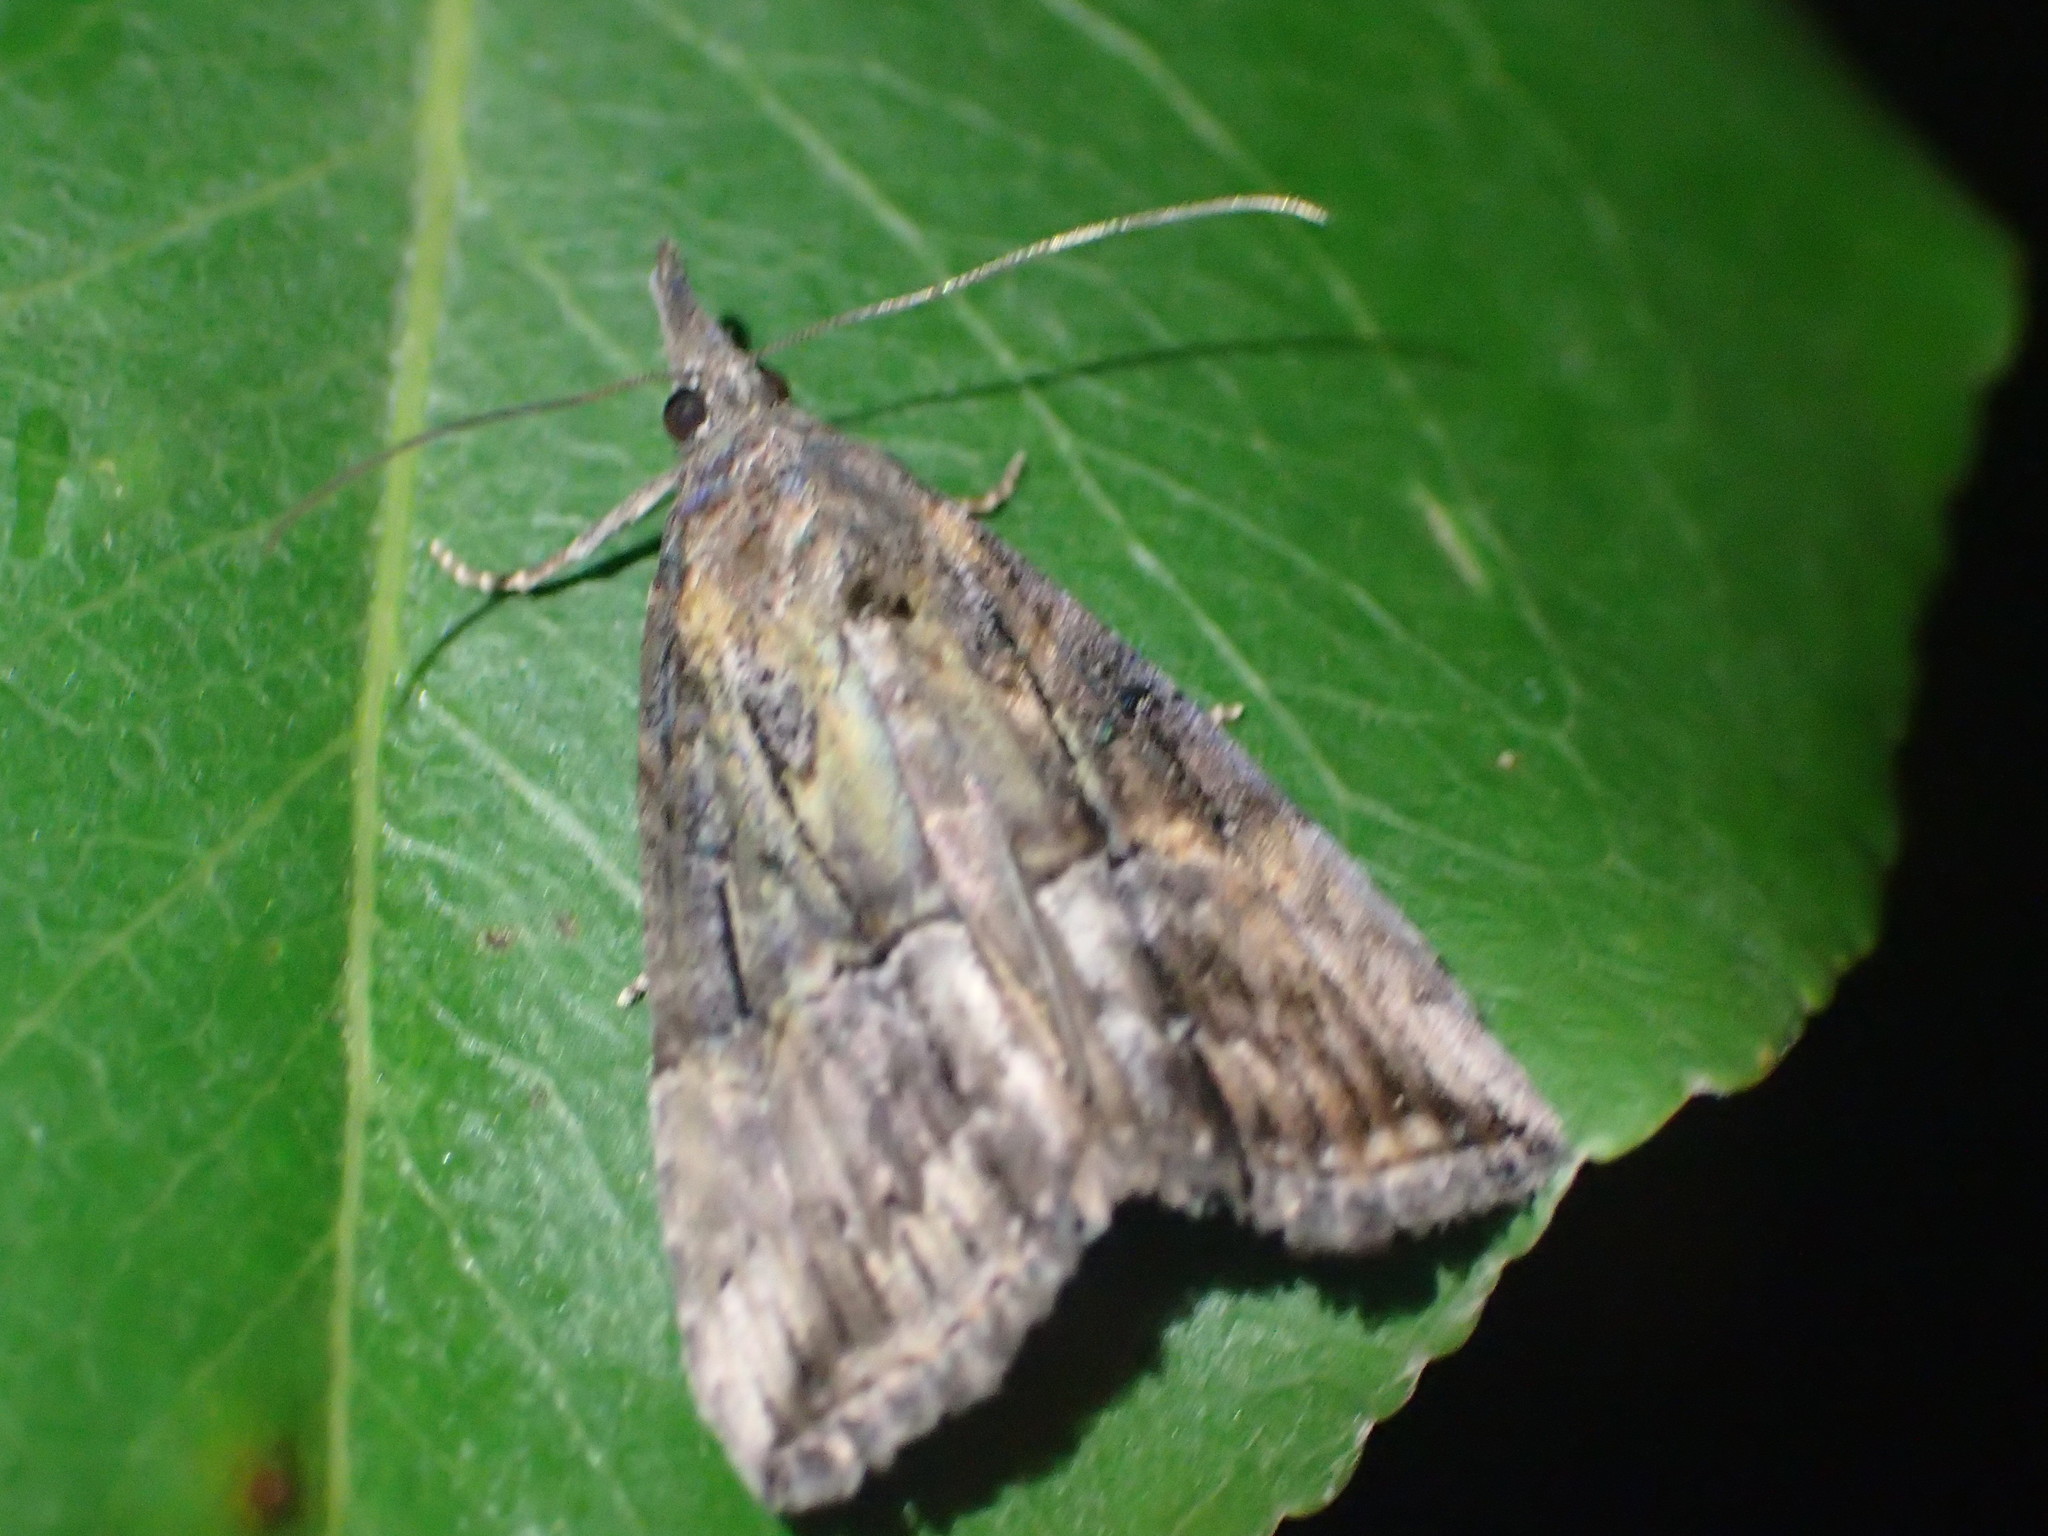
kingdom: Animalia
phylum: Arthropoda
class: Insecta
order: Lepidoptera
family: Erebidae
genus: Hypena
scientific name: Hypena scabra
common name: Green cloverworm
